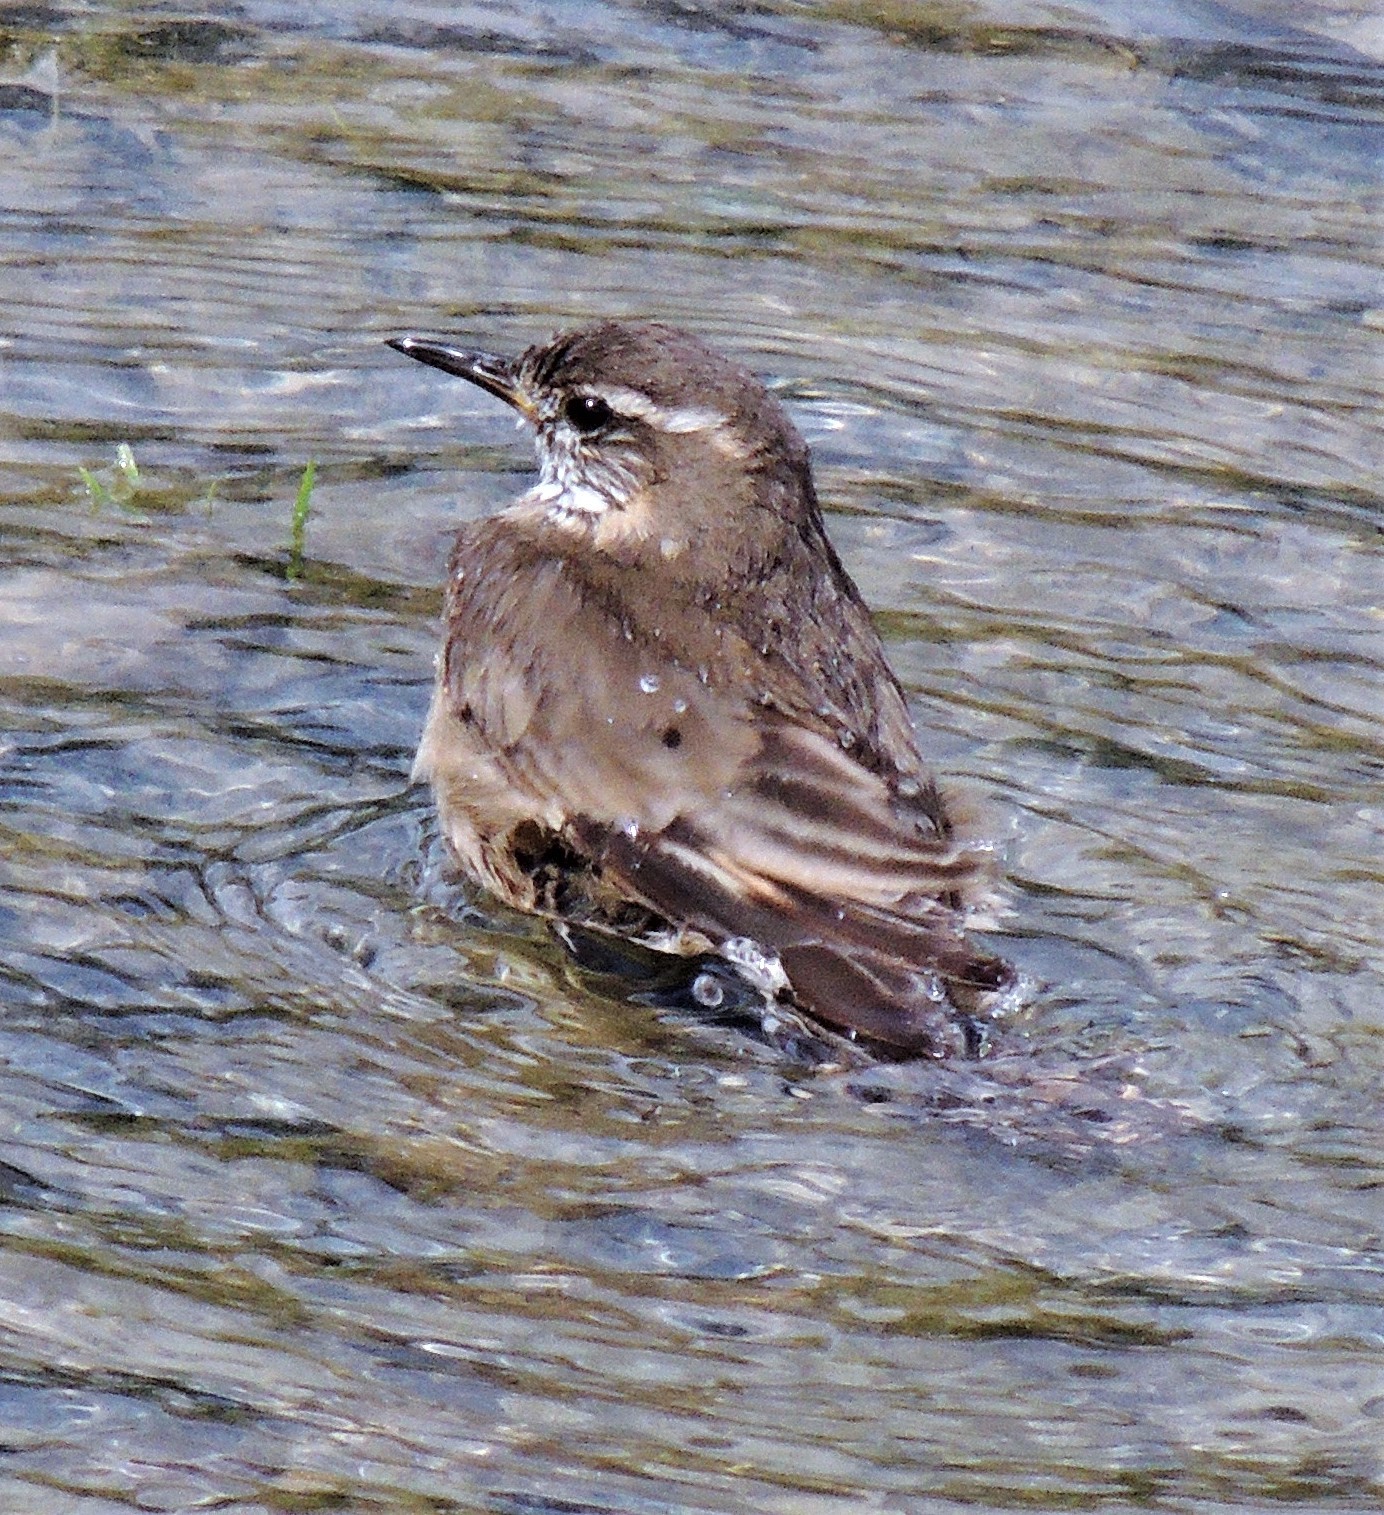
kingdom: Animalia
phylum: Chordata
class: Aves
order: Passeriformes
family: Furnariidae
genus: Cinclodes
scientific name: Cinclodes fuscus
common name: Buff-winged cinclodes
